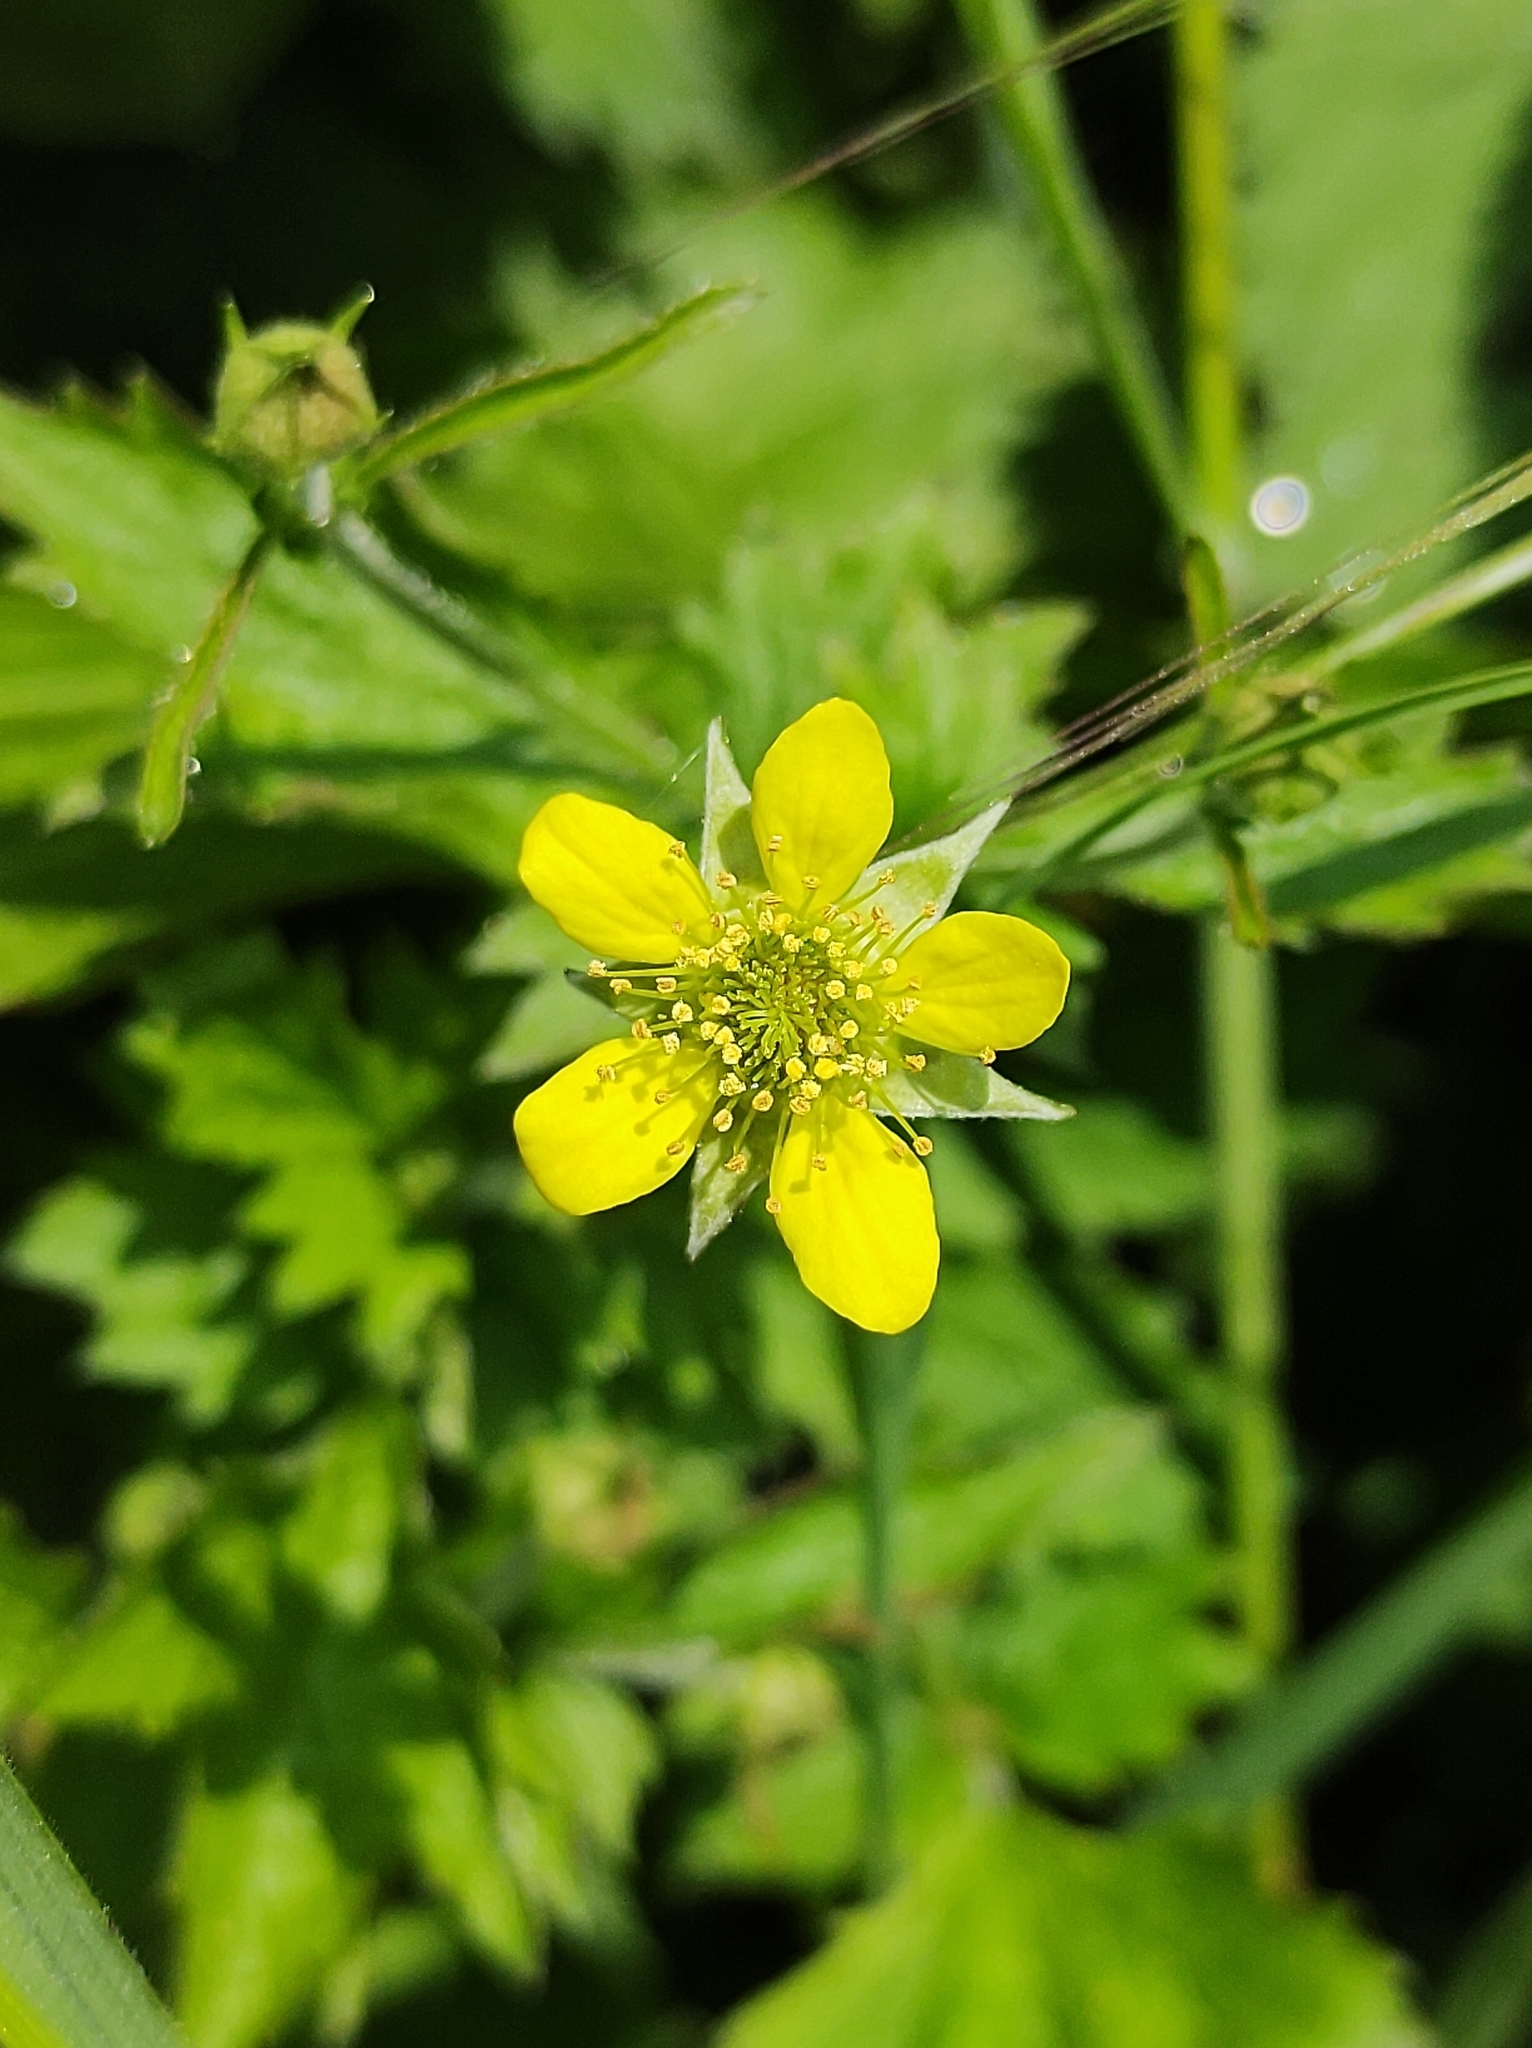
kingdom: Plantae
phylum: Tracheophyta
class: Magnoliopsida
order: Rosales
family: Rosaceae
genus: Geum
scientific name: Geum urbanum
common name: Wood avens
